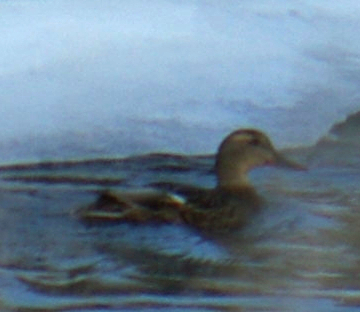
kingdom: Animalia
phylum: Chordata
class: Aves
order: Anseriformes
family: Anatidae
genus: Anas
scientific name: Anas platyrhynchos
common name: Mallard
